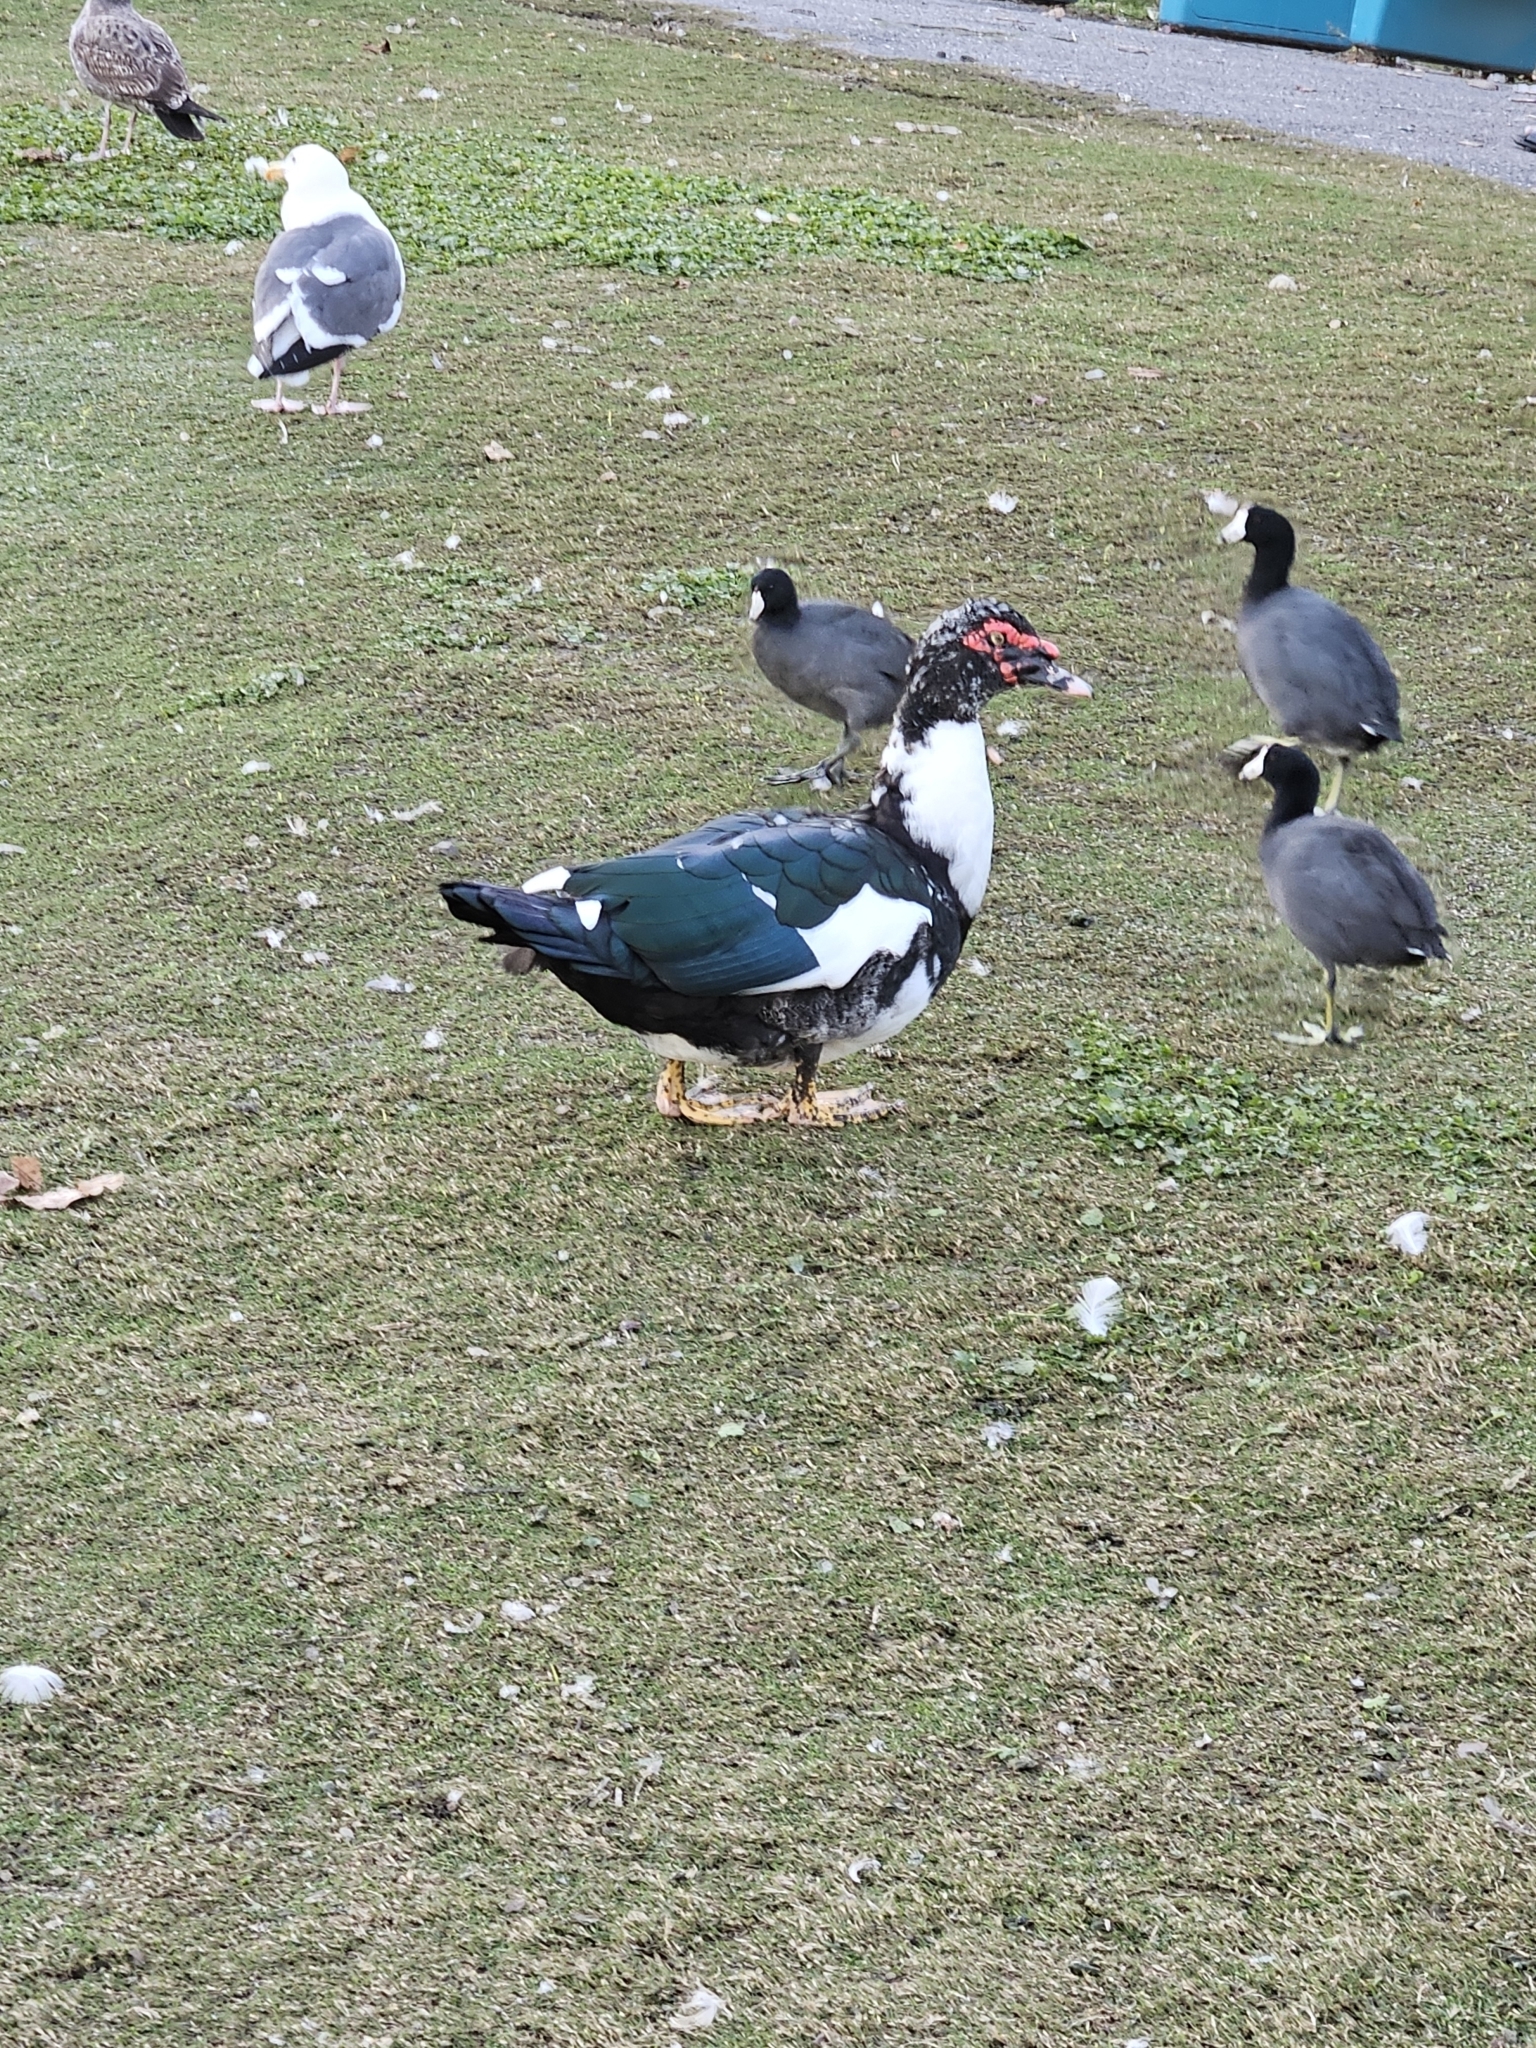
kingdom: Animalia
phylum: Chordata
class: Aves
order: Anseriformes
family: Anatidae
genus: Cairina
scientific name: Cairina moschata
